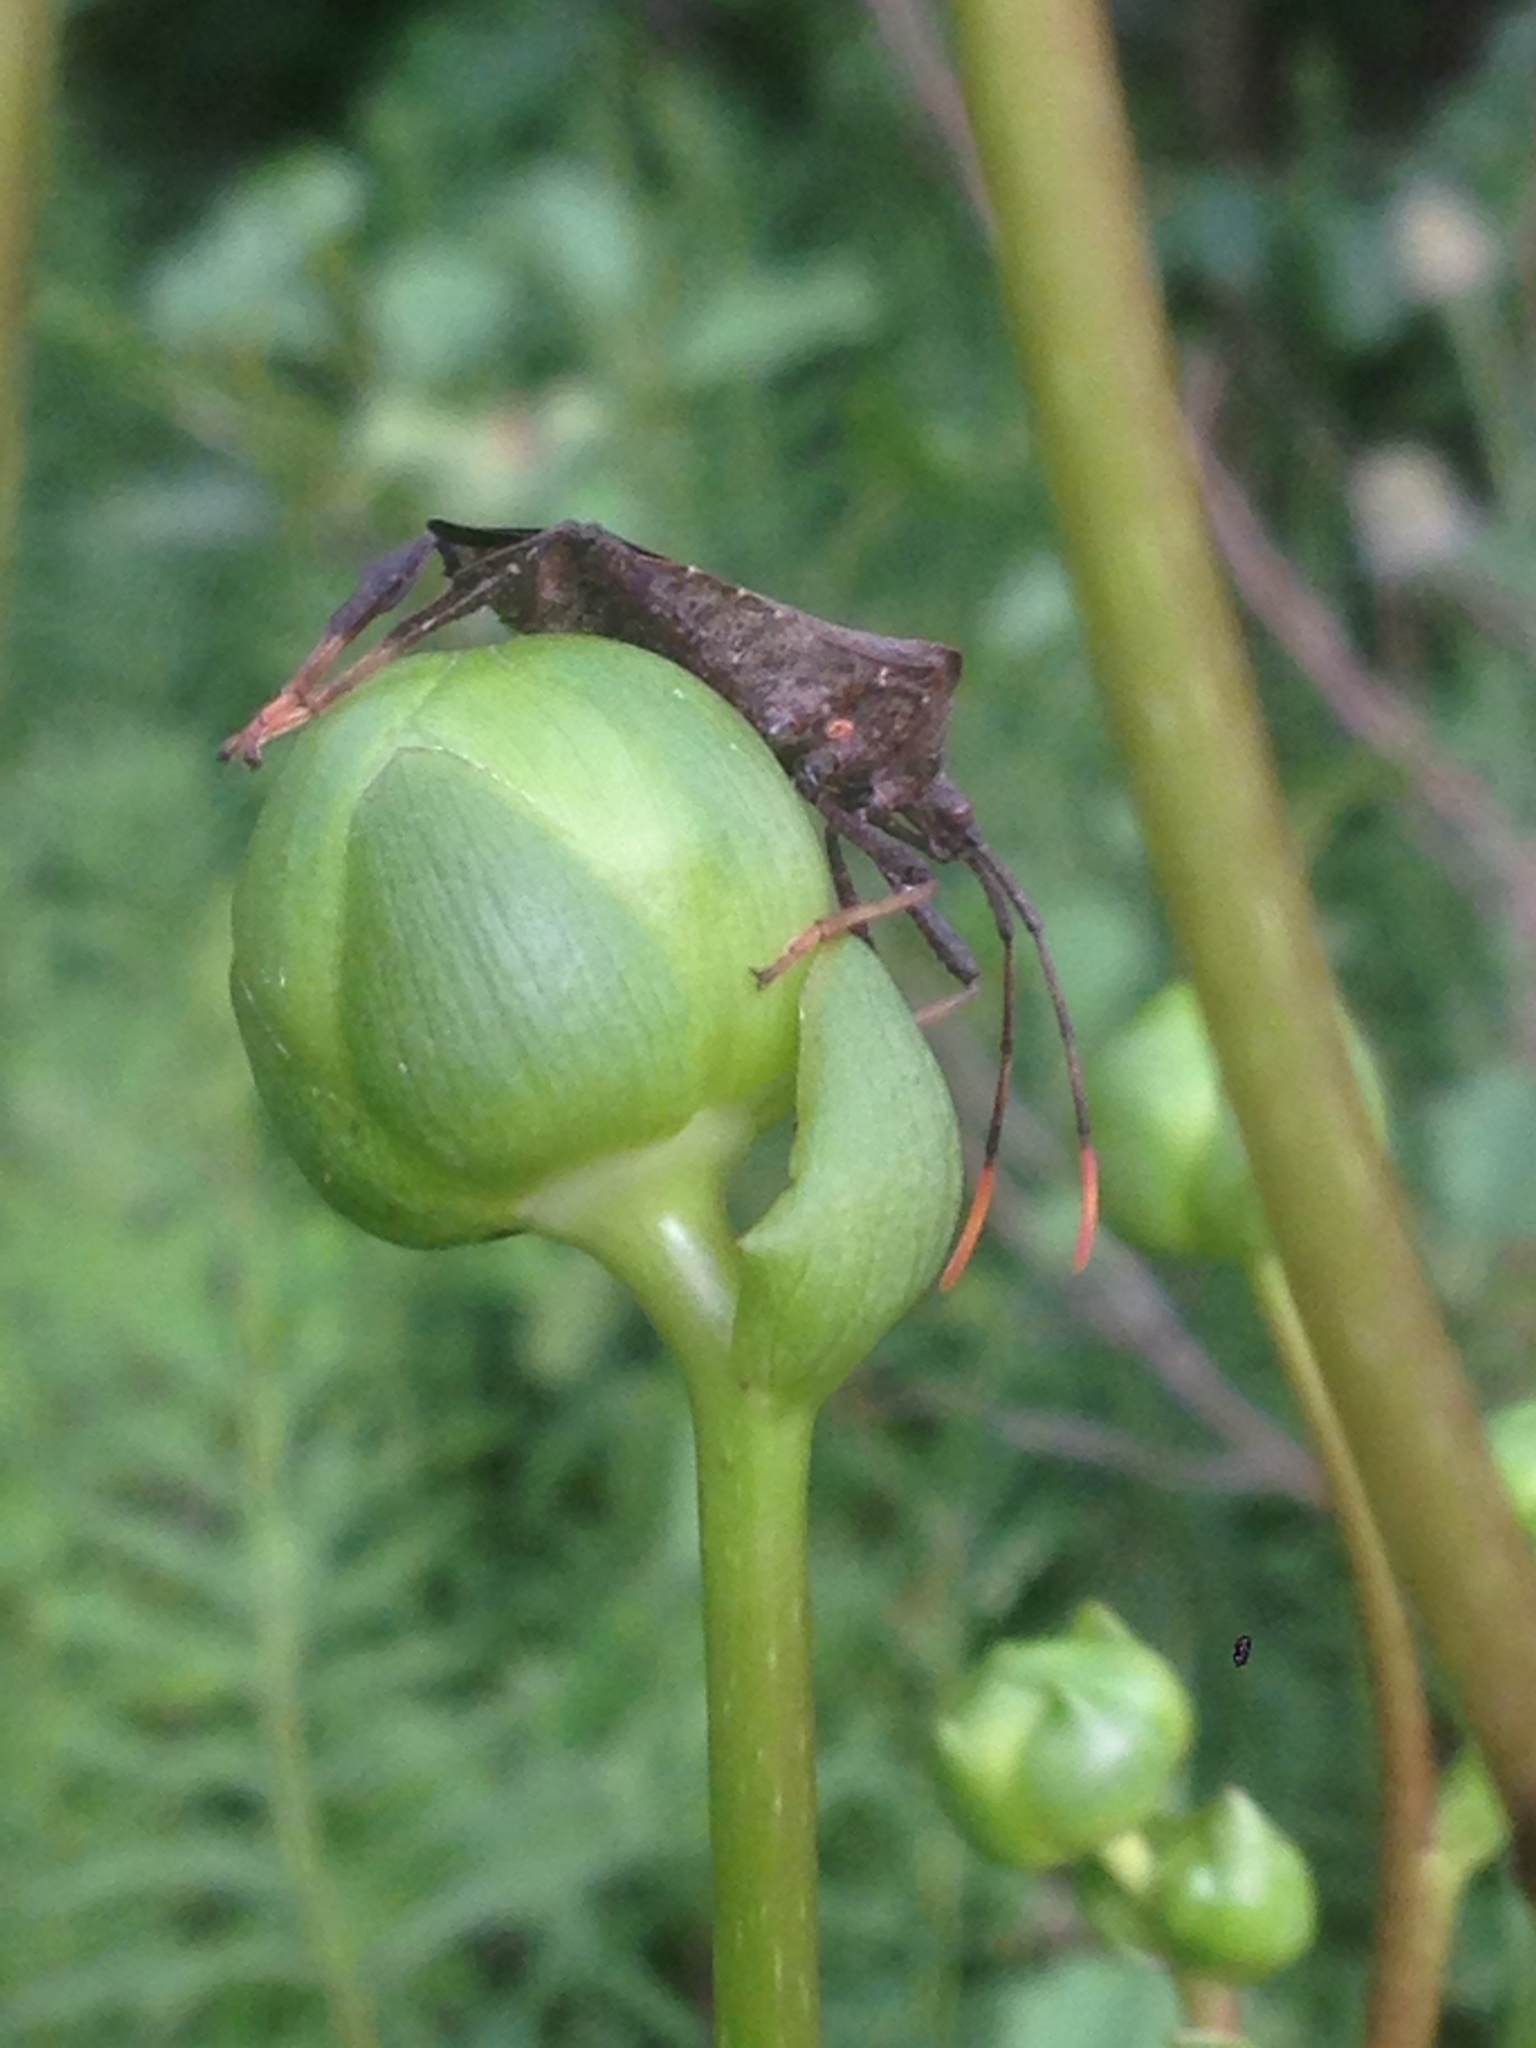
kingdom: Animalia
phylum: Arthropoda
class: Insecta
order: Hemiptera
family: Coreidae
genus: Acanthocephala
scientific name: Acanthocephala terminalis
